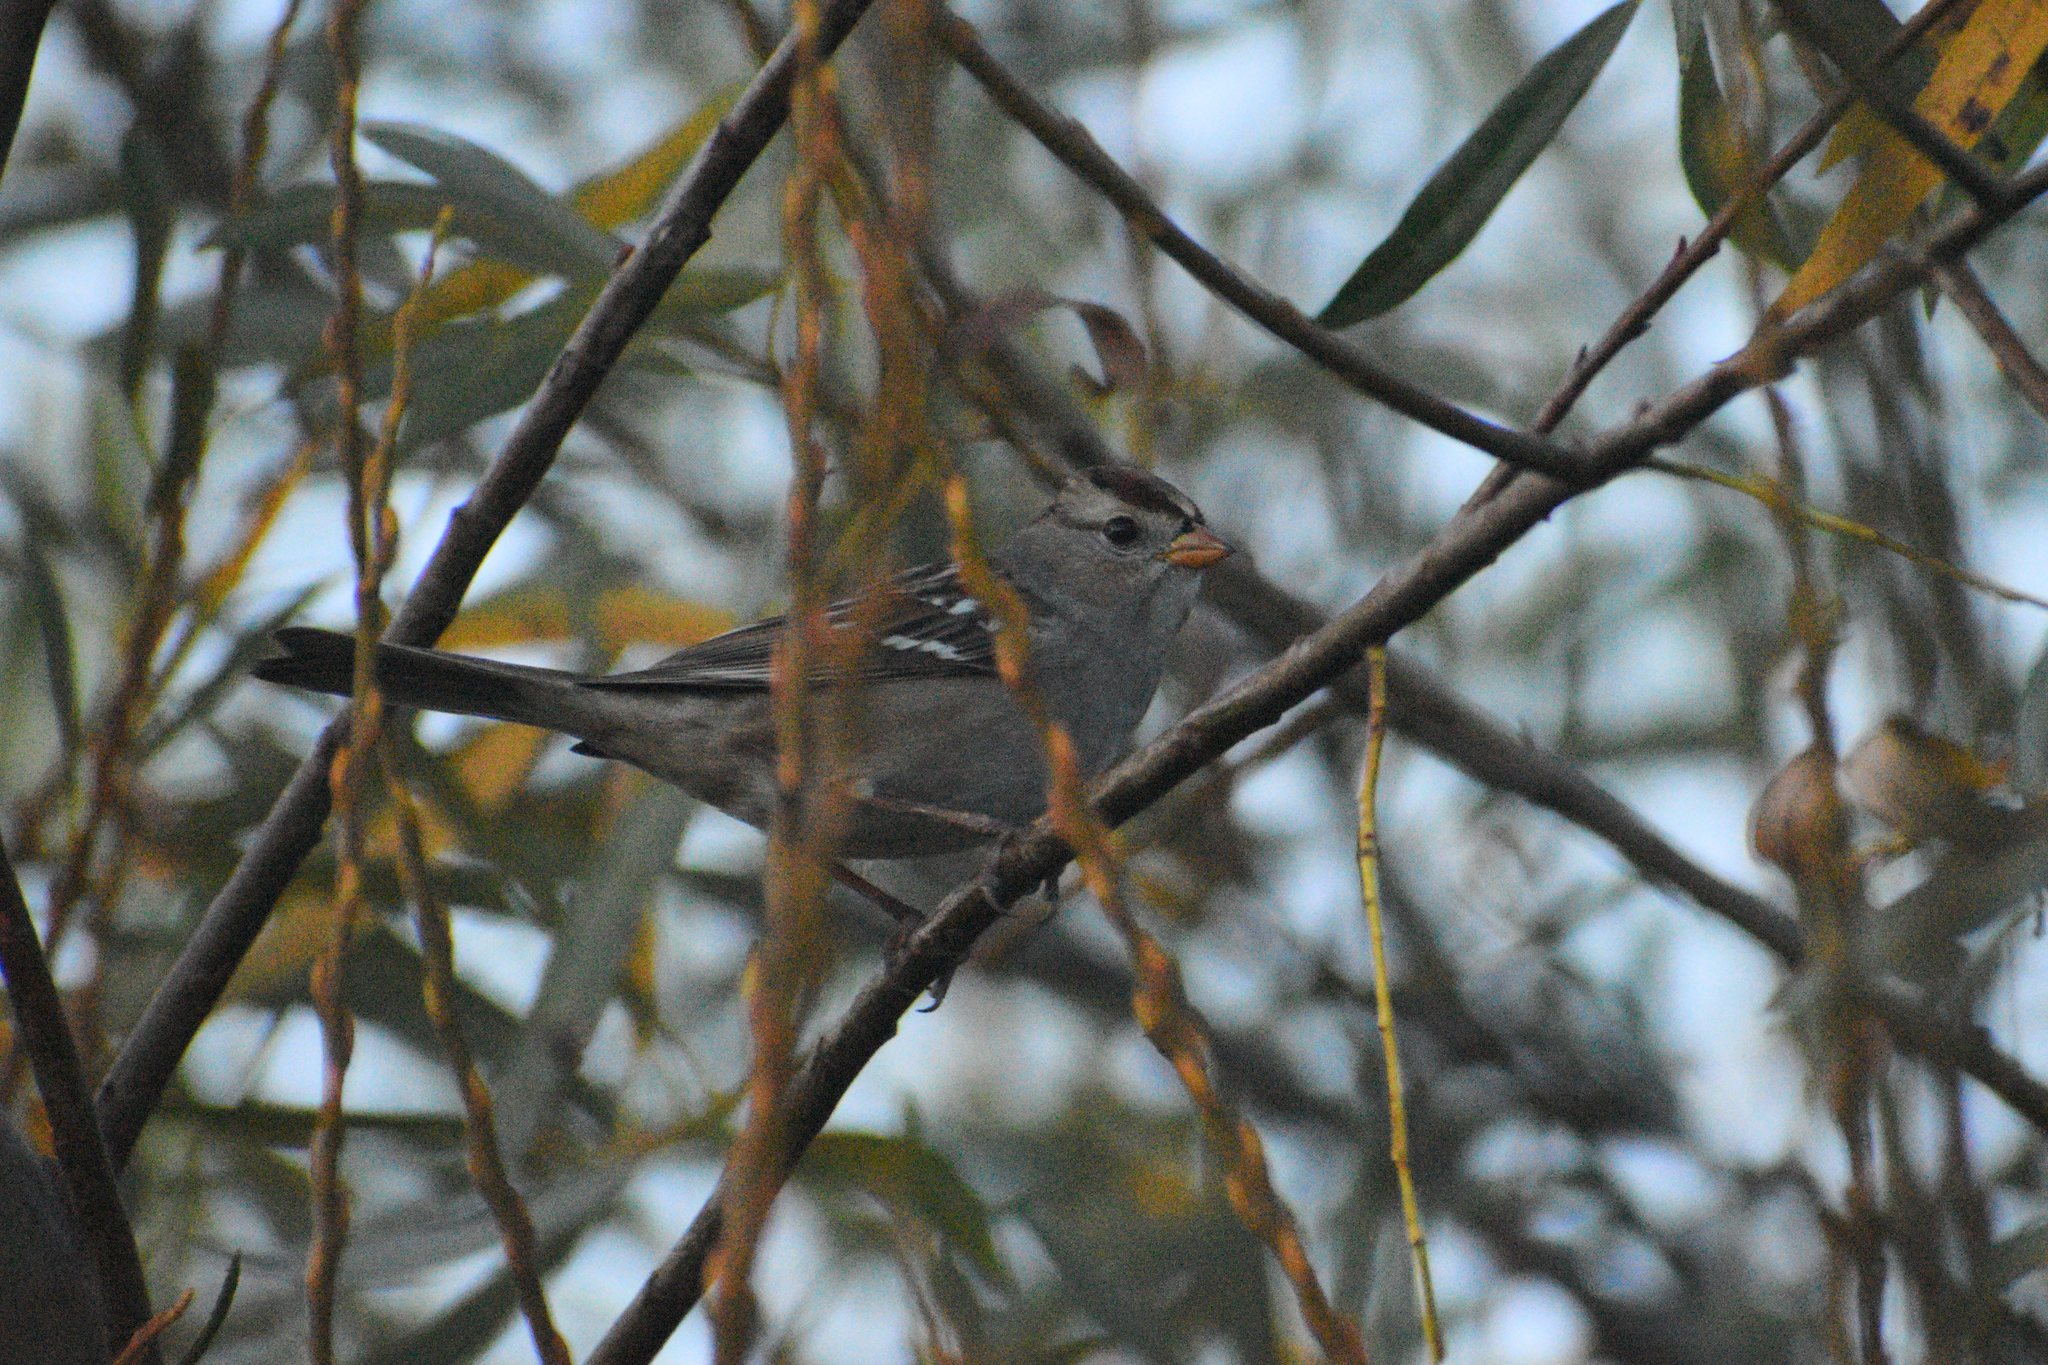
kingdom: Animalia
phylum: Chordata
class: Aves
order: Passeriformes
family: Passerellidae
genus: Zonotrichia
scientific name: Zonotrichia leucophrys
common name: White-crowned sparrow
